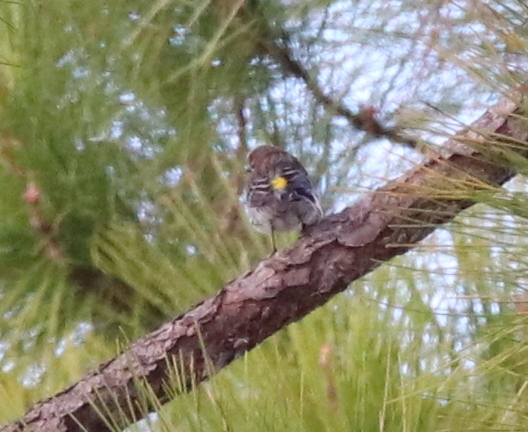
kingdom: Animalia
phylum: Chordata
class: Aves
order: Passeriformes
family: Parulidae
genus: Setophaga
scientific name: Setophaga coronata
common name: Myrtle warbler
